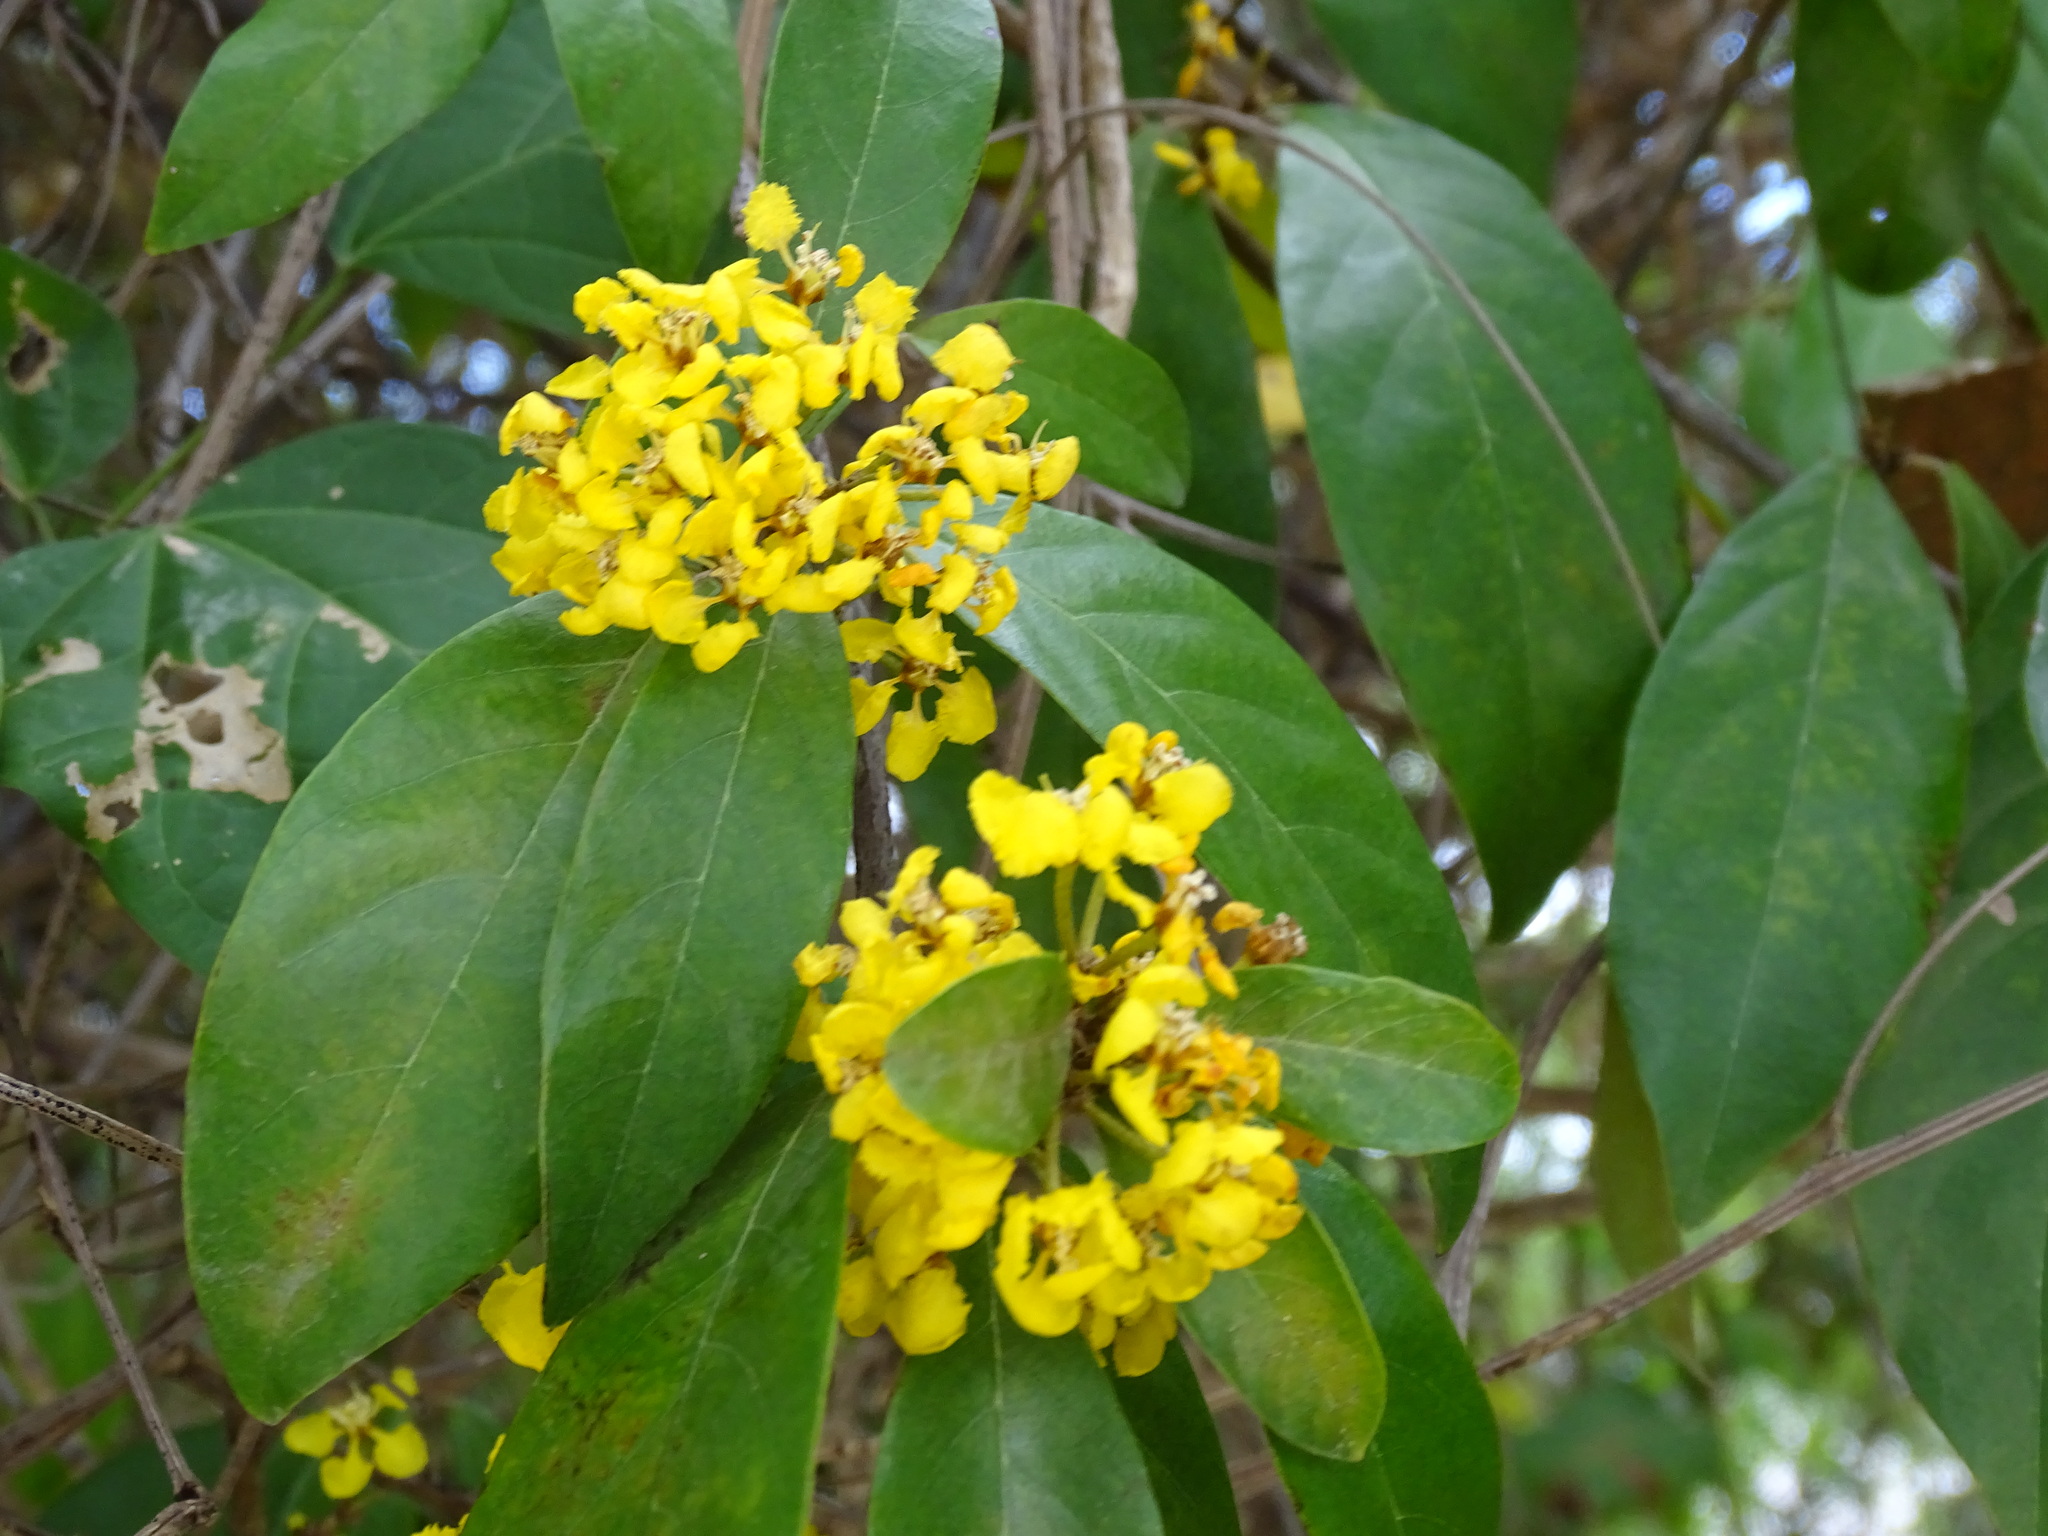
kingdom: Plantae
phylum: Tracheophyta
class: Magnoliopsida
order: Malpighiales
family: Malpighiaceae
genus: Hiraea
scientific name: Hiraea reclinata
